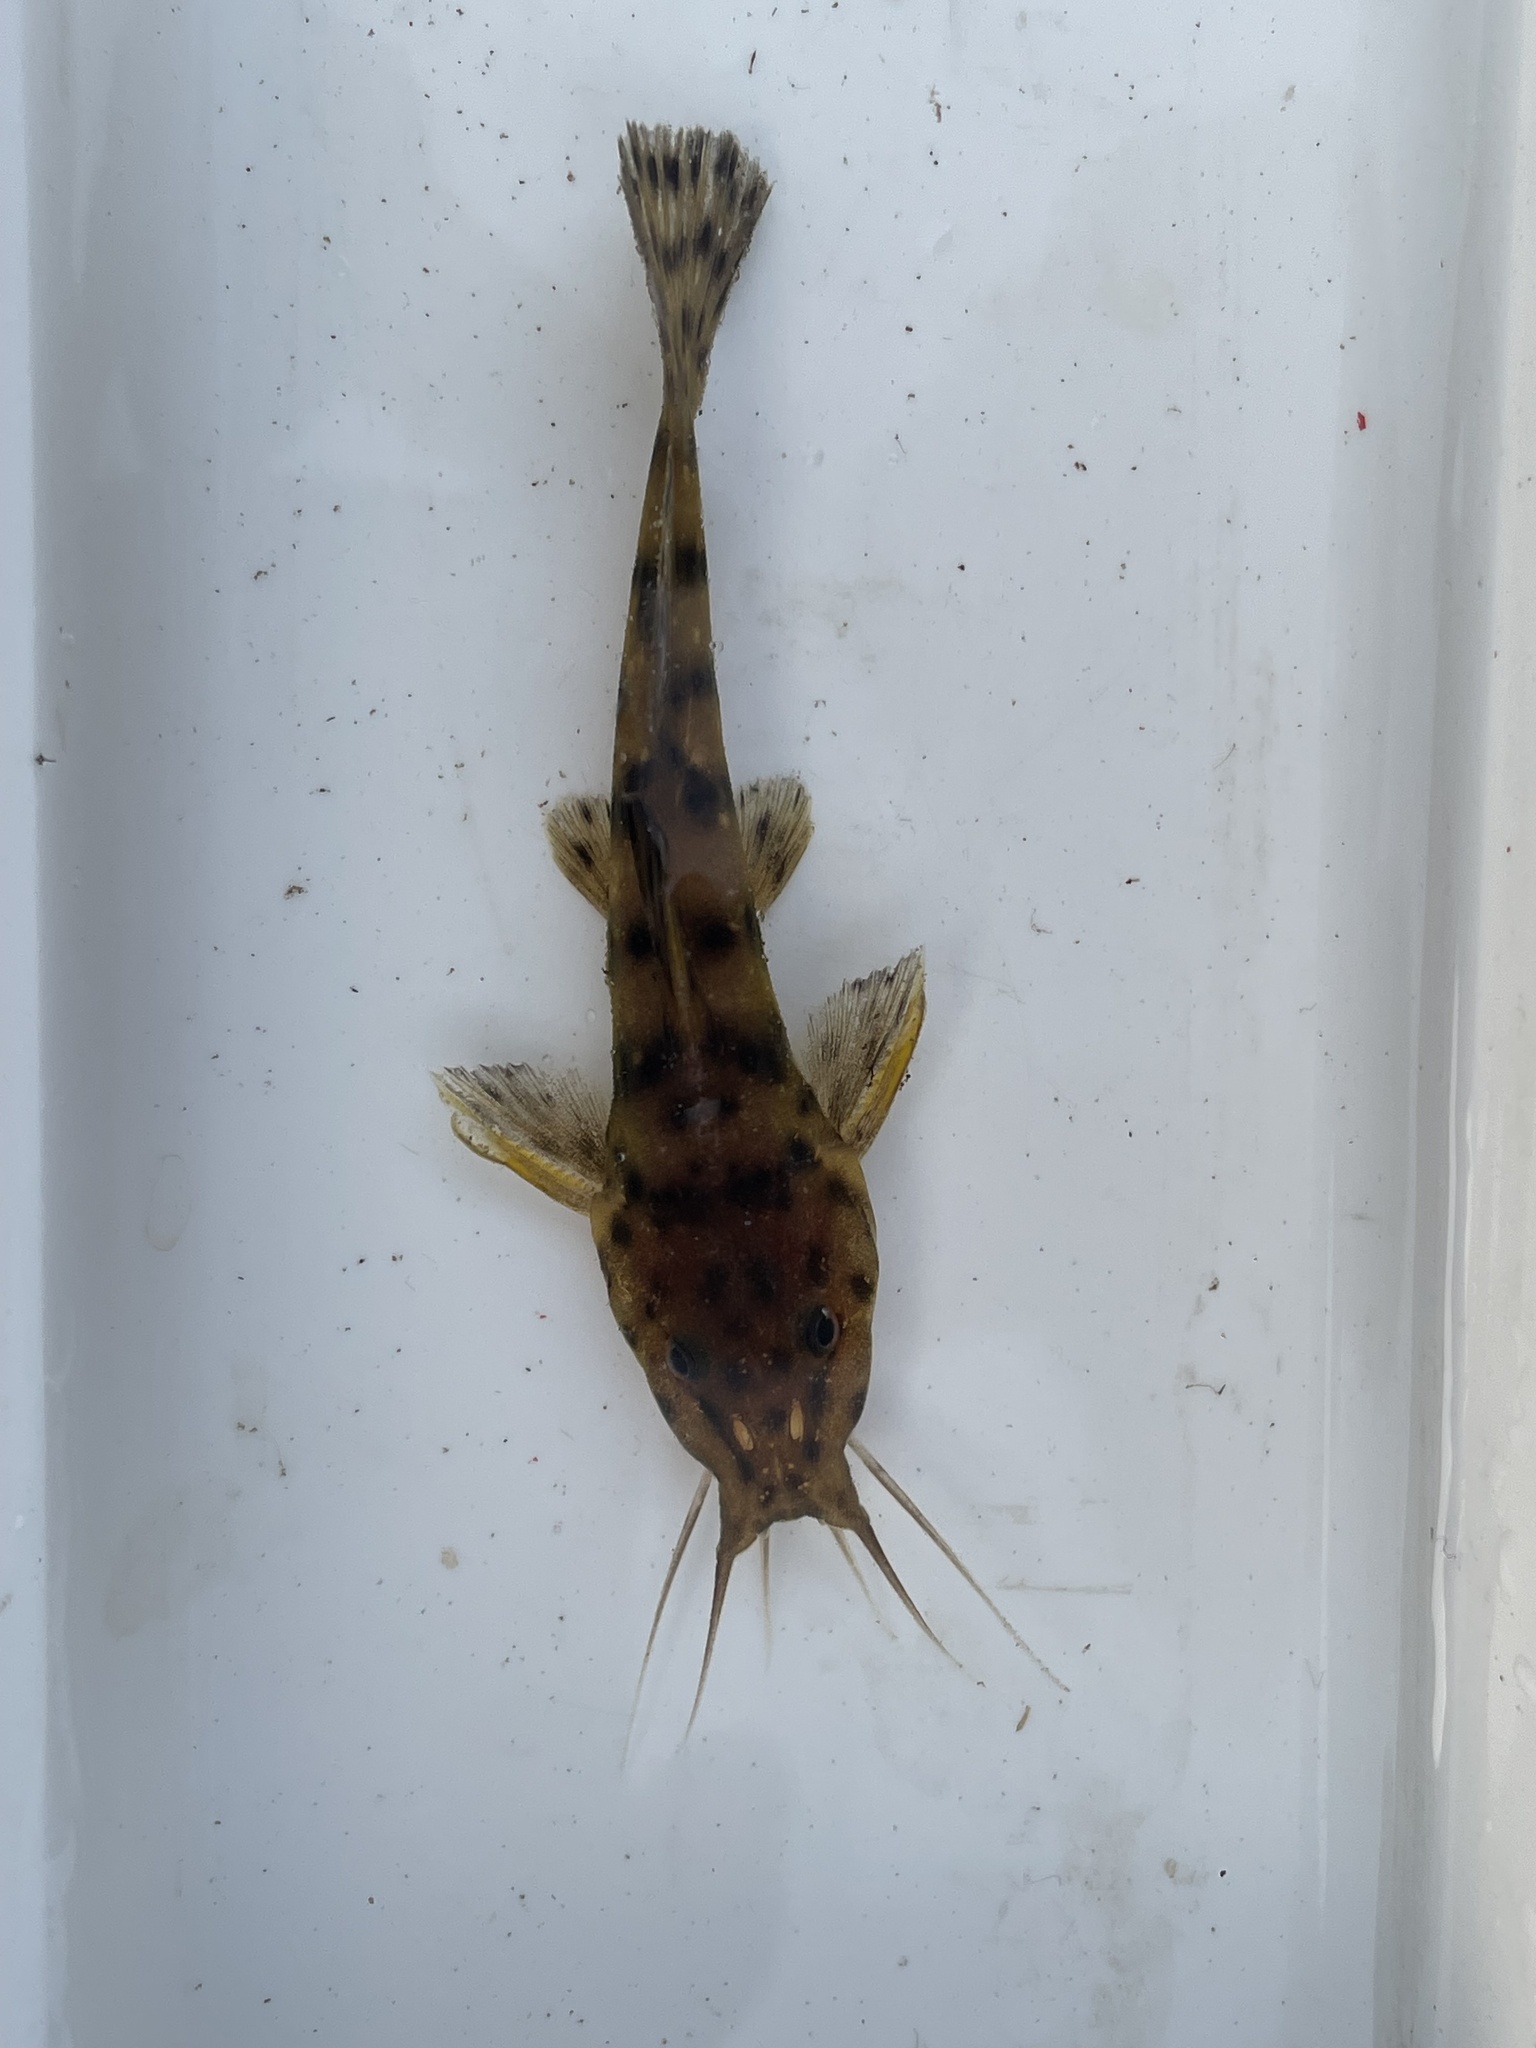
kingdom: Animalia
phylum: Chordata
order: Siluriformes
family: Claroteidae
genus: Parauchenoglanis
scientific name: Parauchenoglanis ngamensis
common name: Zambezi grunter
